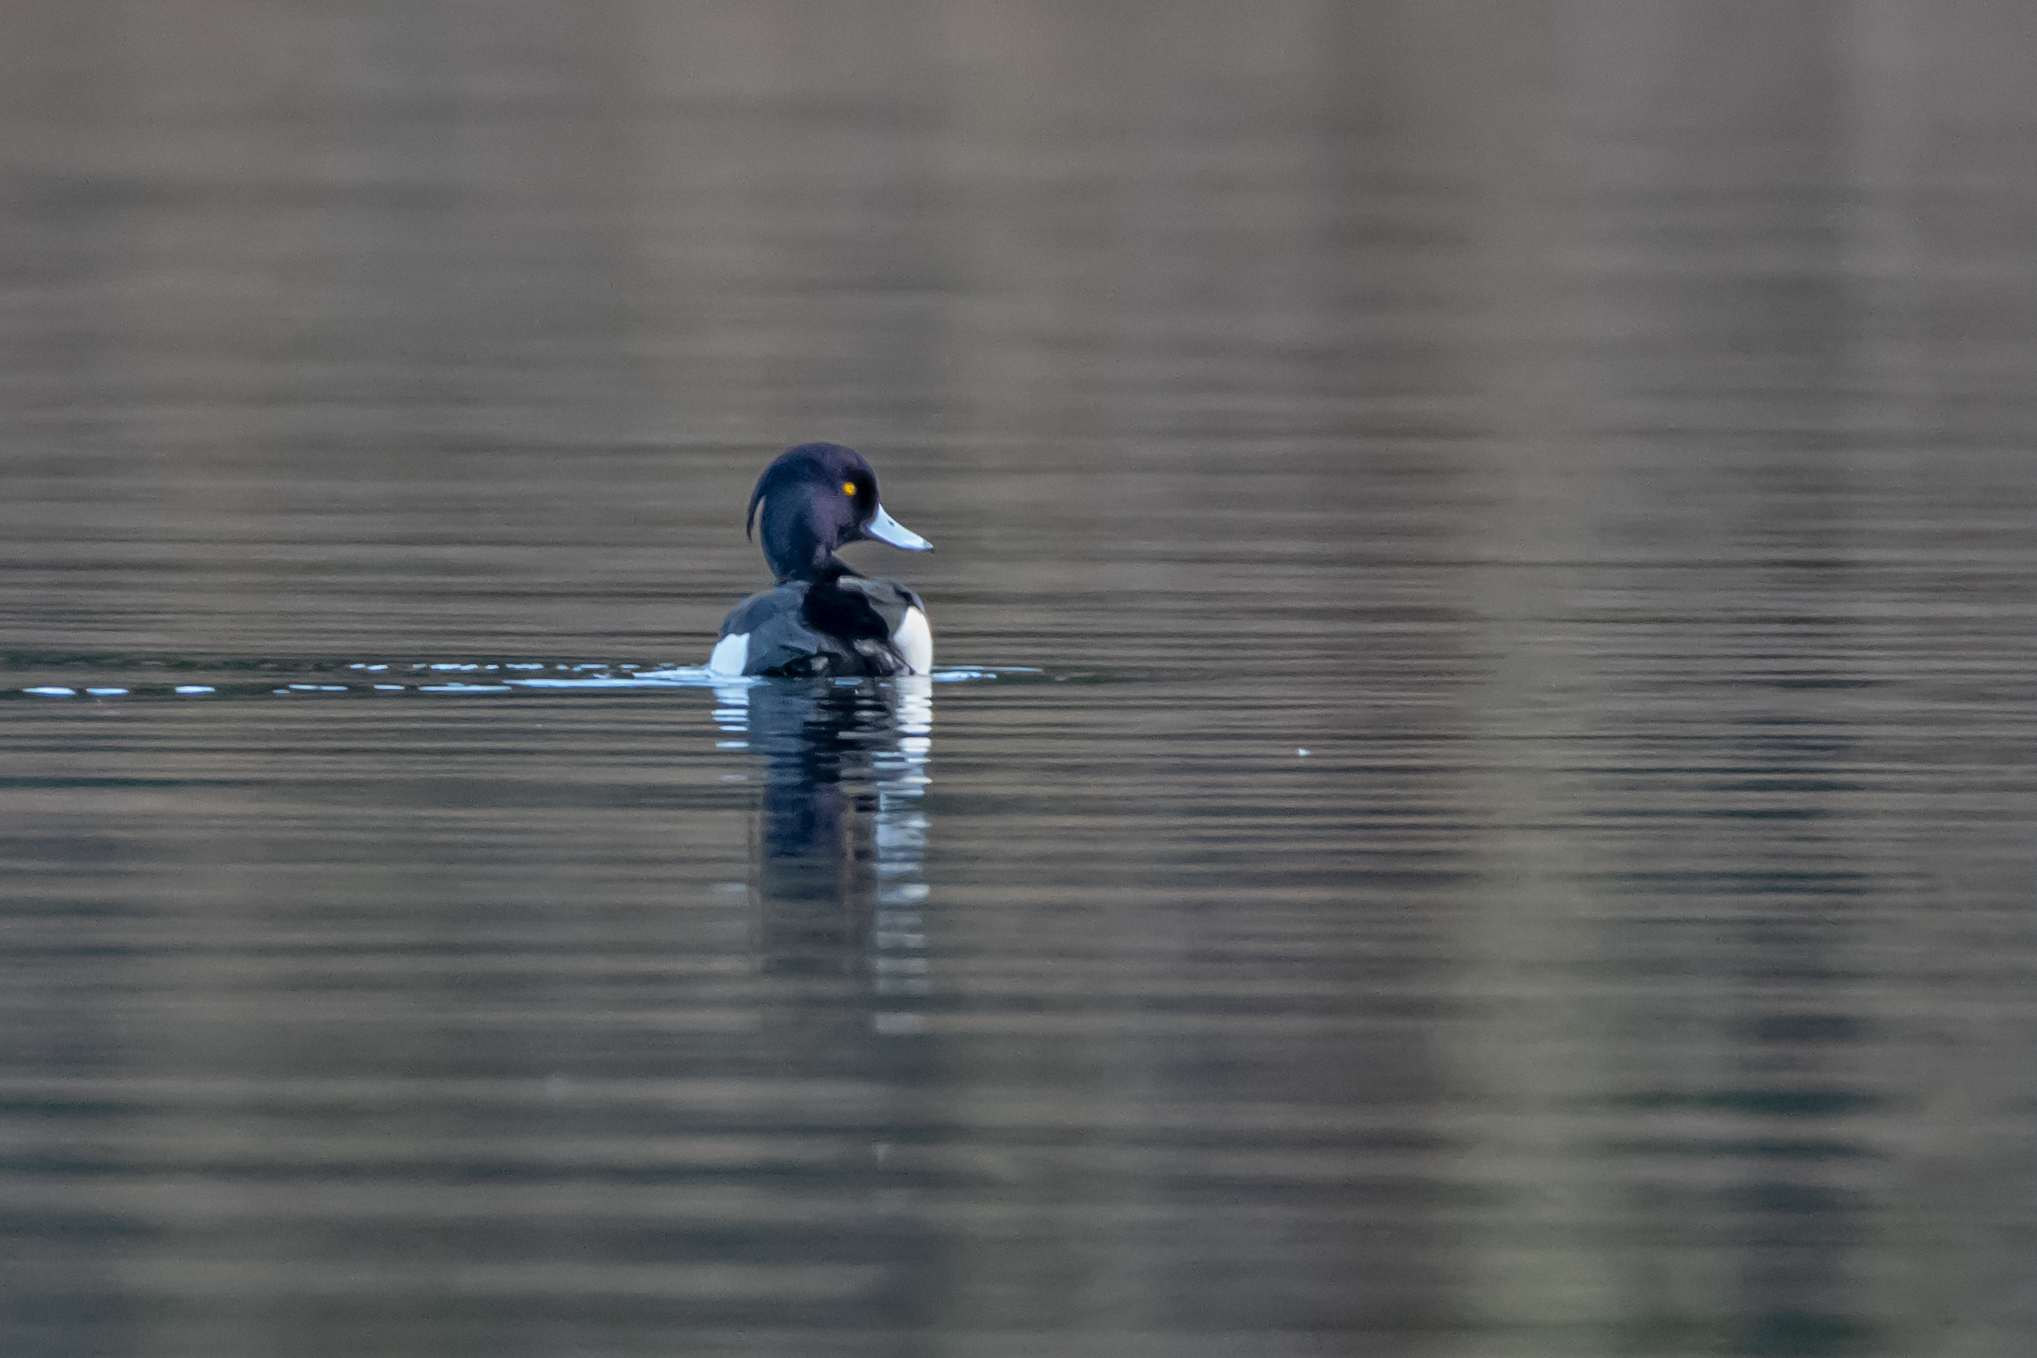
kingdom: Animalia
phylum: Chordata
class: Aves
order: Anseriformes
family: Anatidae
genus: Aythya
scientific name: Aythya fuligula
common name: Tufted duck
